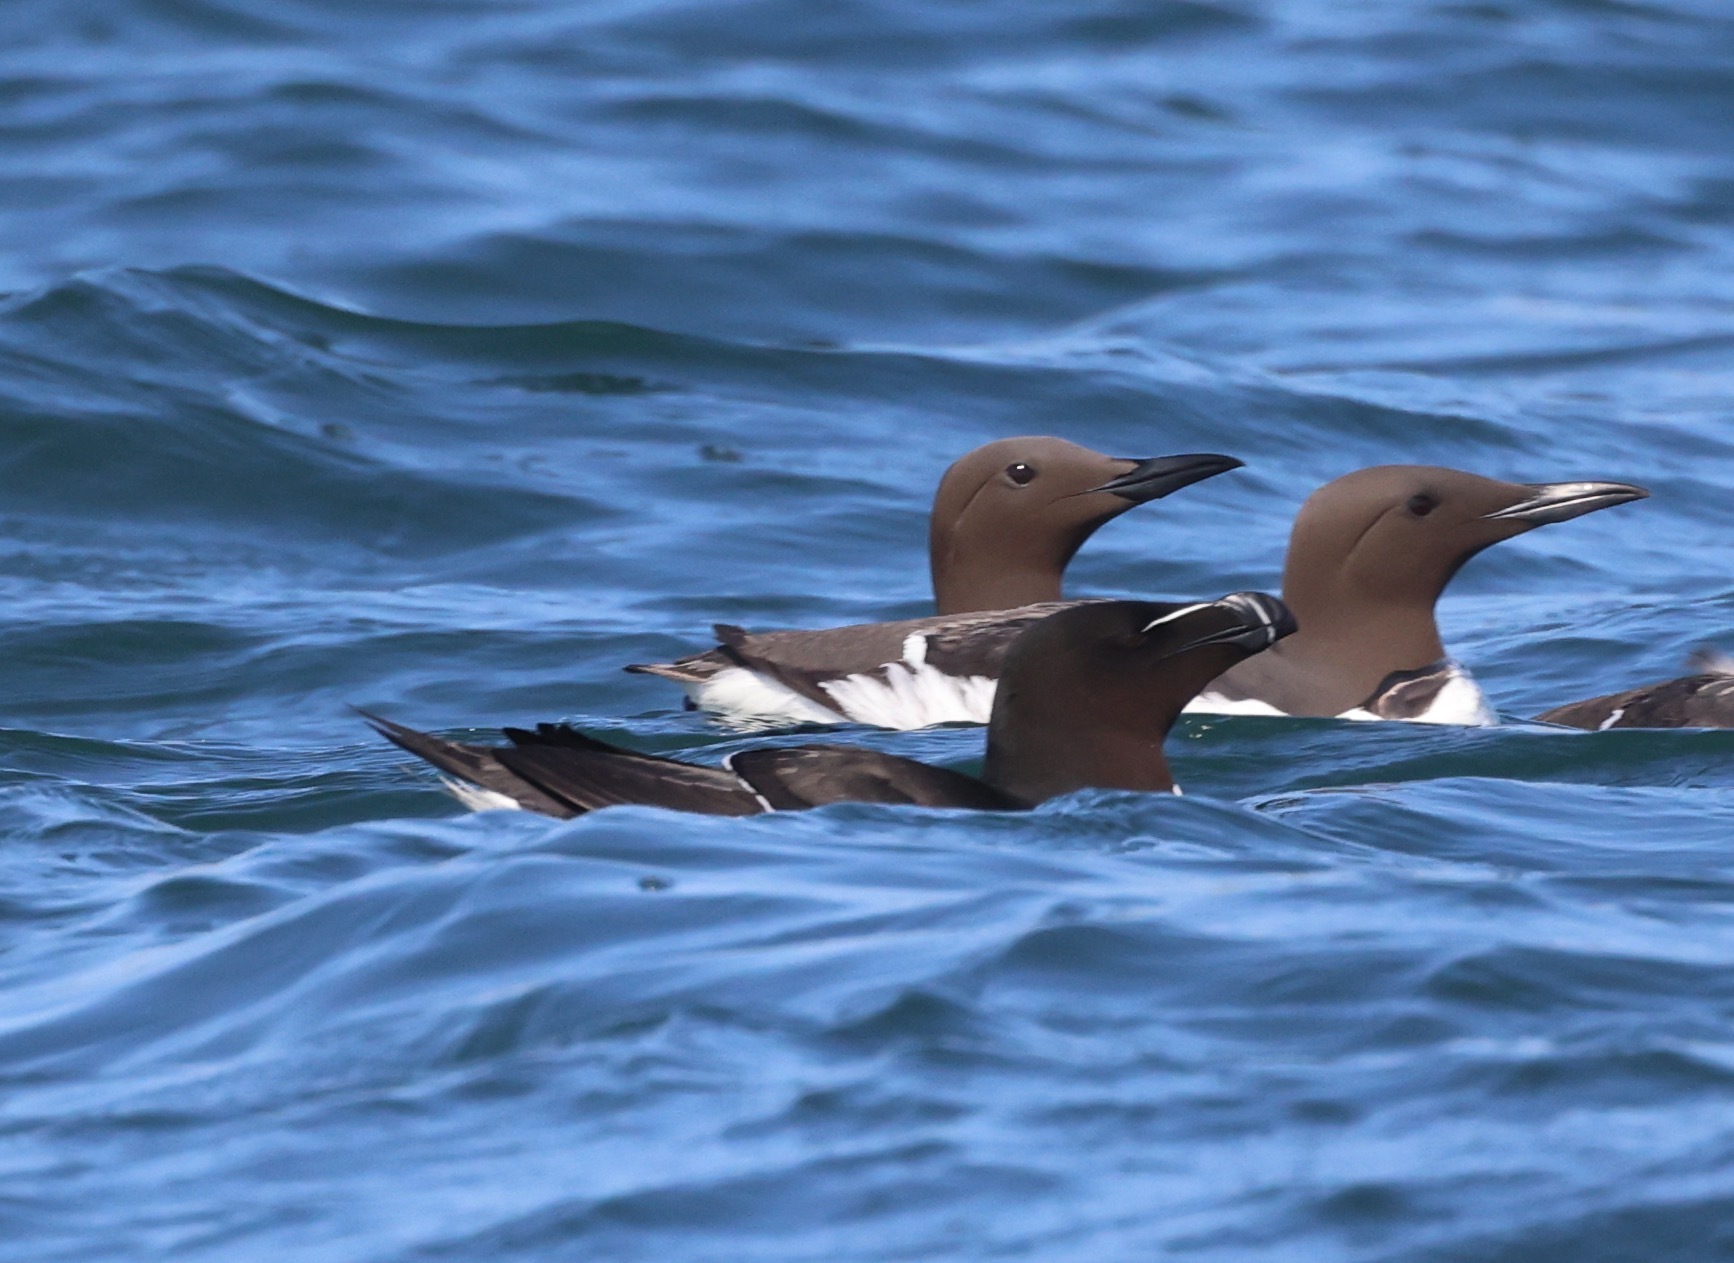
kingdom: Animalia
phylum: Chordata
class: Aves
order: Charadriiformes
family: Alcidae
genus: Alca
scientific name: Alca torda
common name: Razorbill
